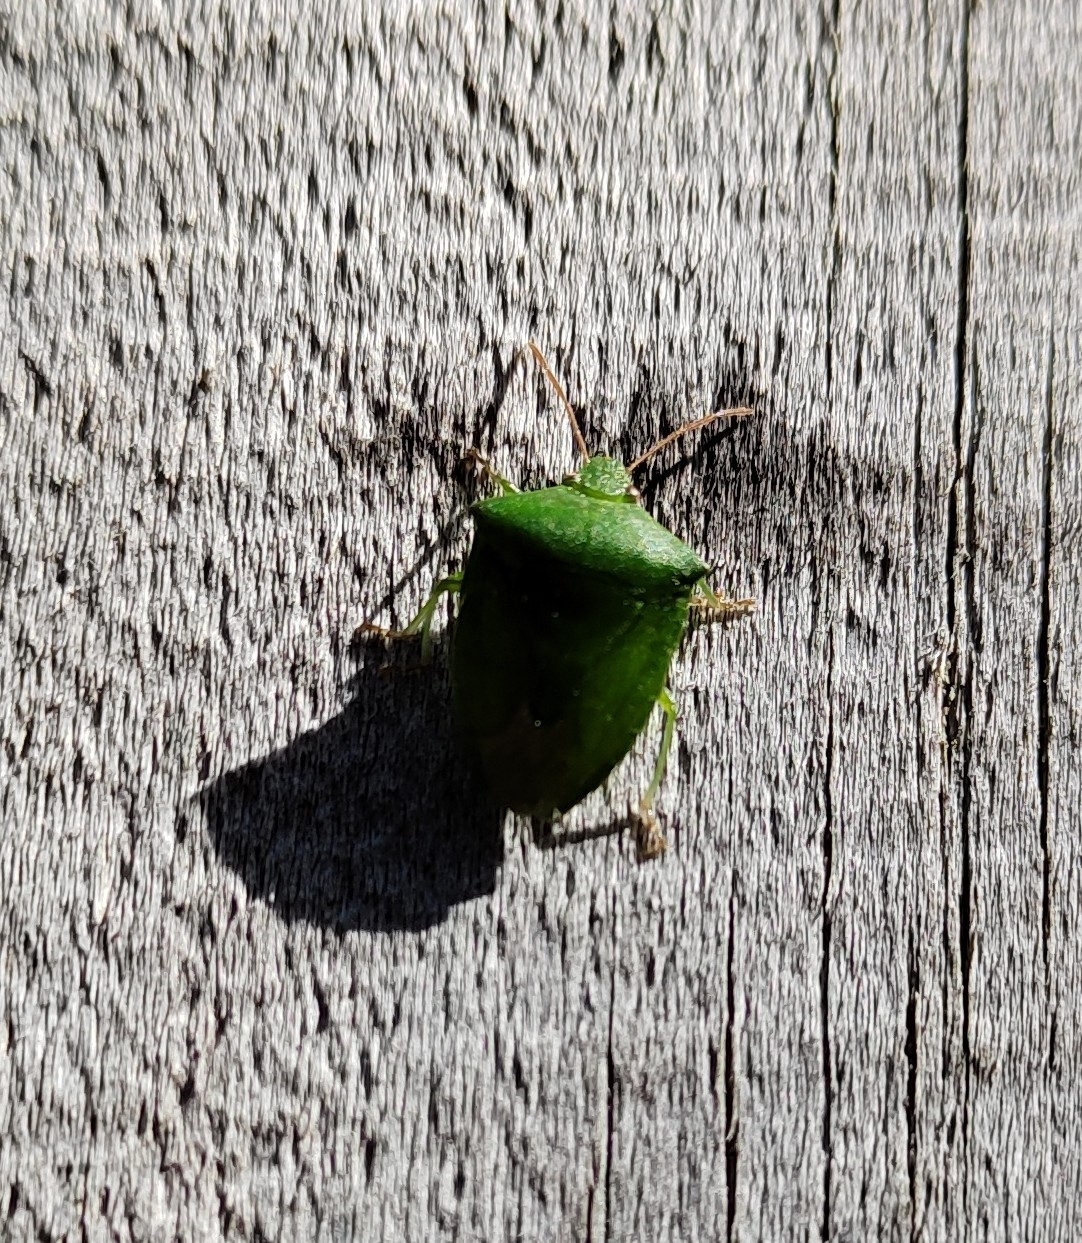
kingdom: Animalia
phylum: Arthropoda
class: Insecta
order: Hemiptera
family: Pentatomidae
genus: Cuspicona
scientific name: Cuspicona simplex
